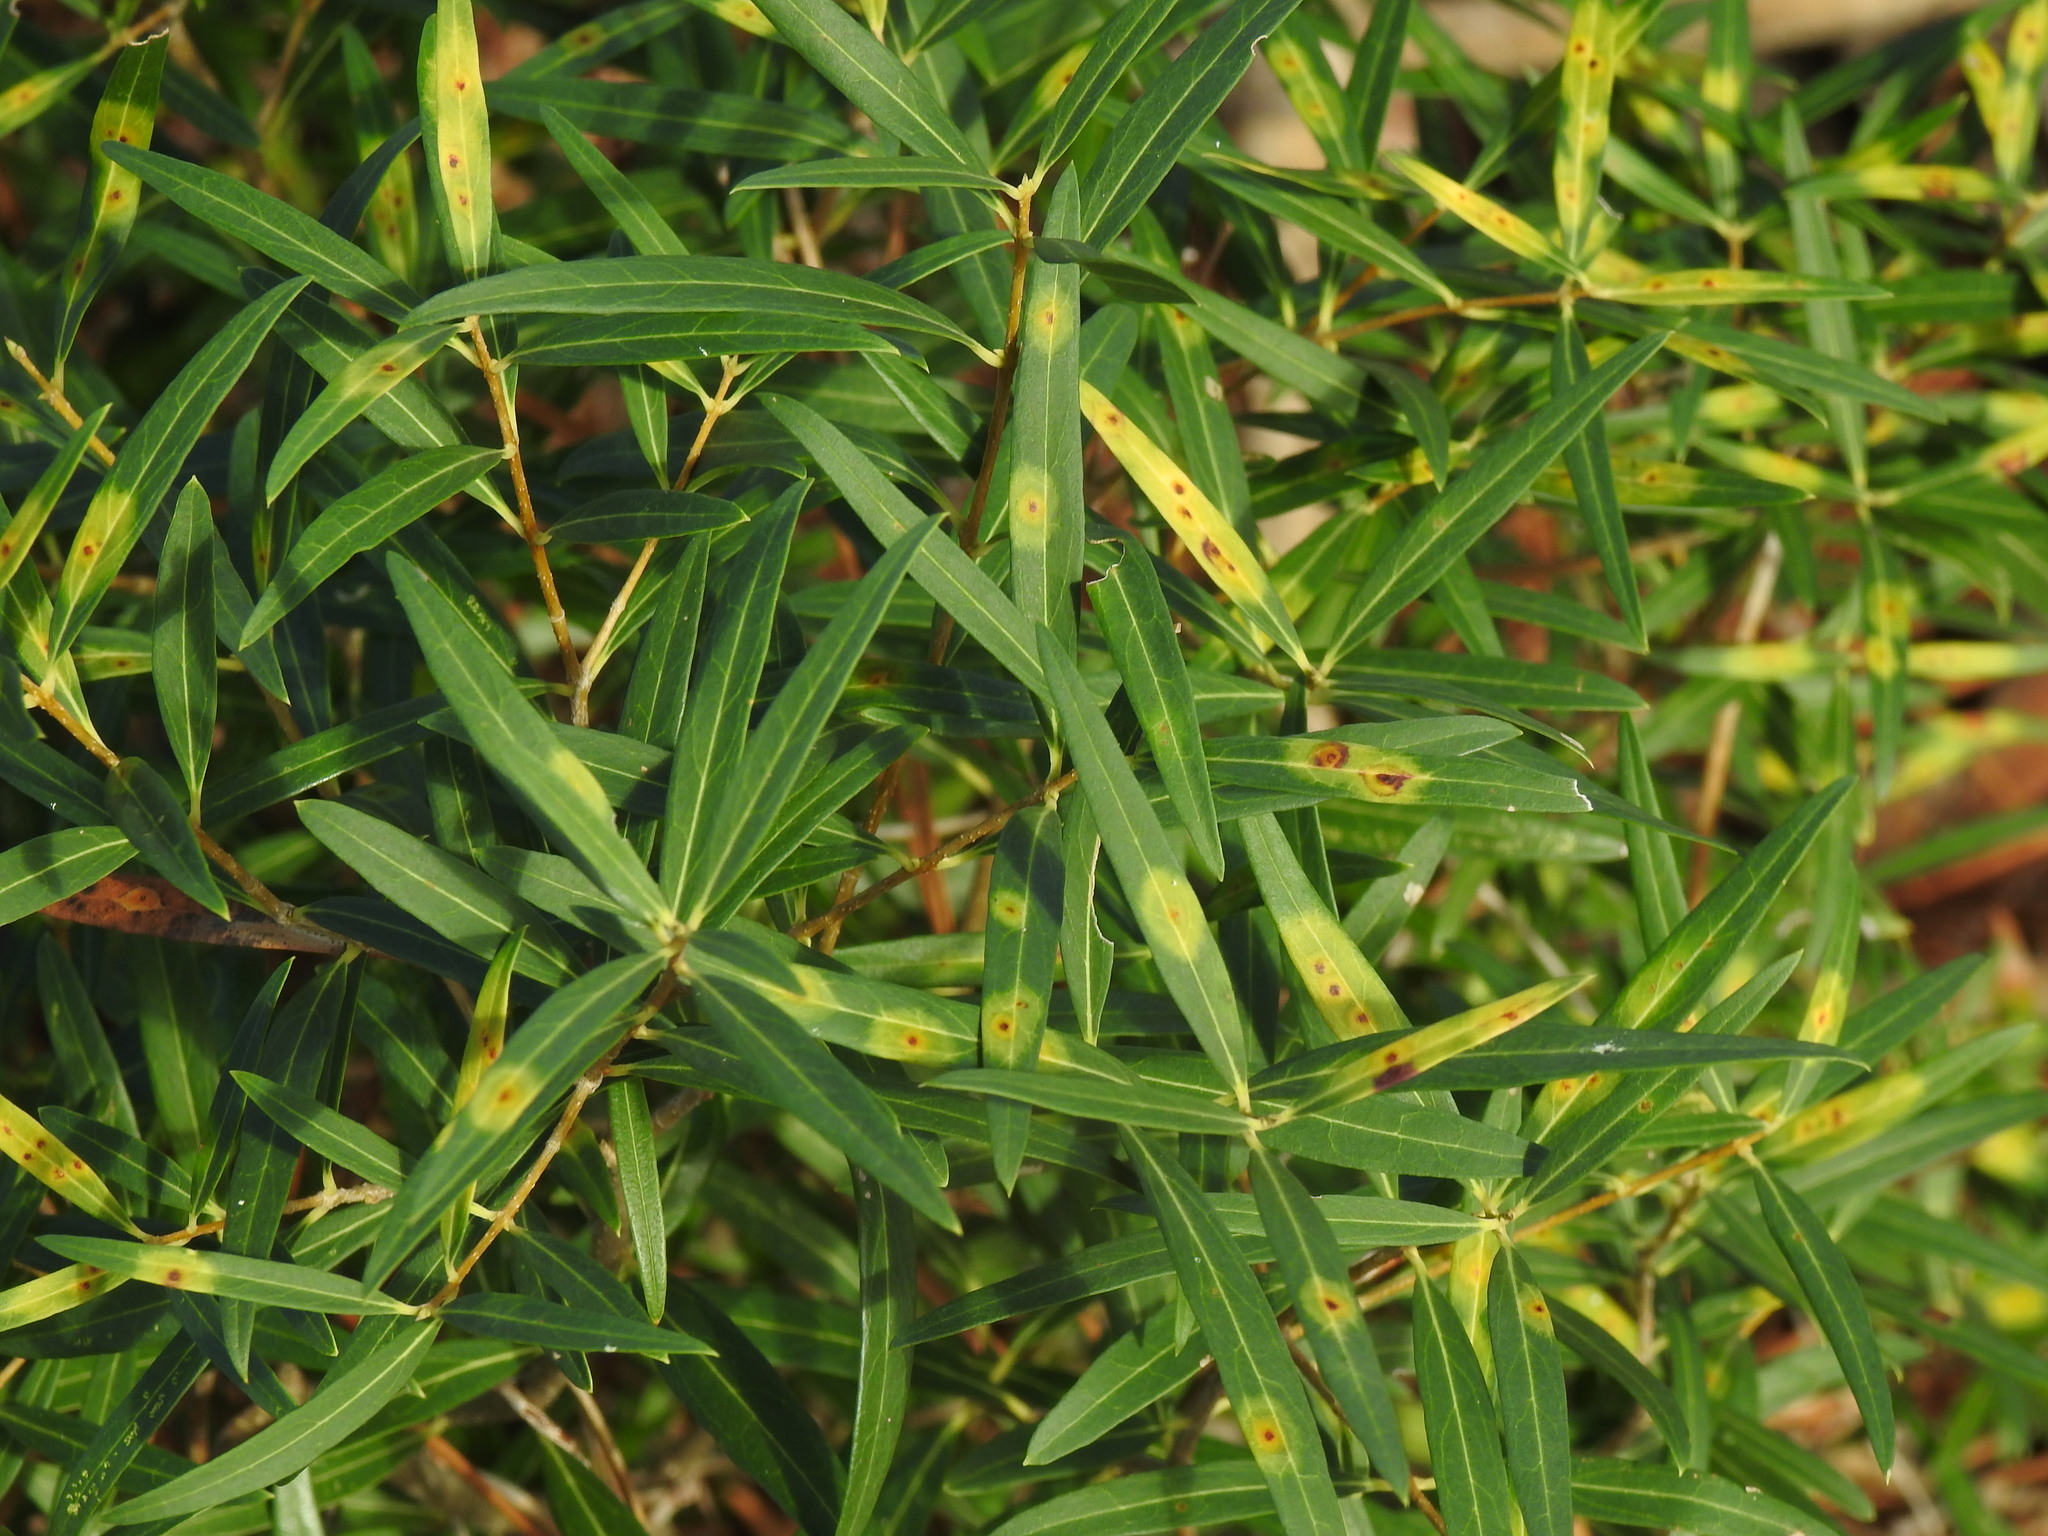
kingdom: Animalia
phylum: Arthropoda
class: Insecta
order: Diptera
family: Cecidomyiidae
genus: Braueriella
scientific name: Braueriella phillyreae
